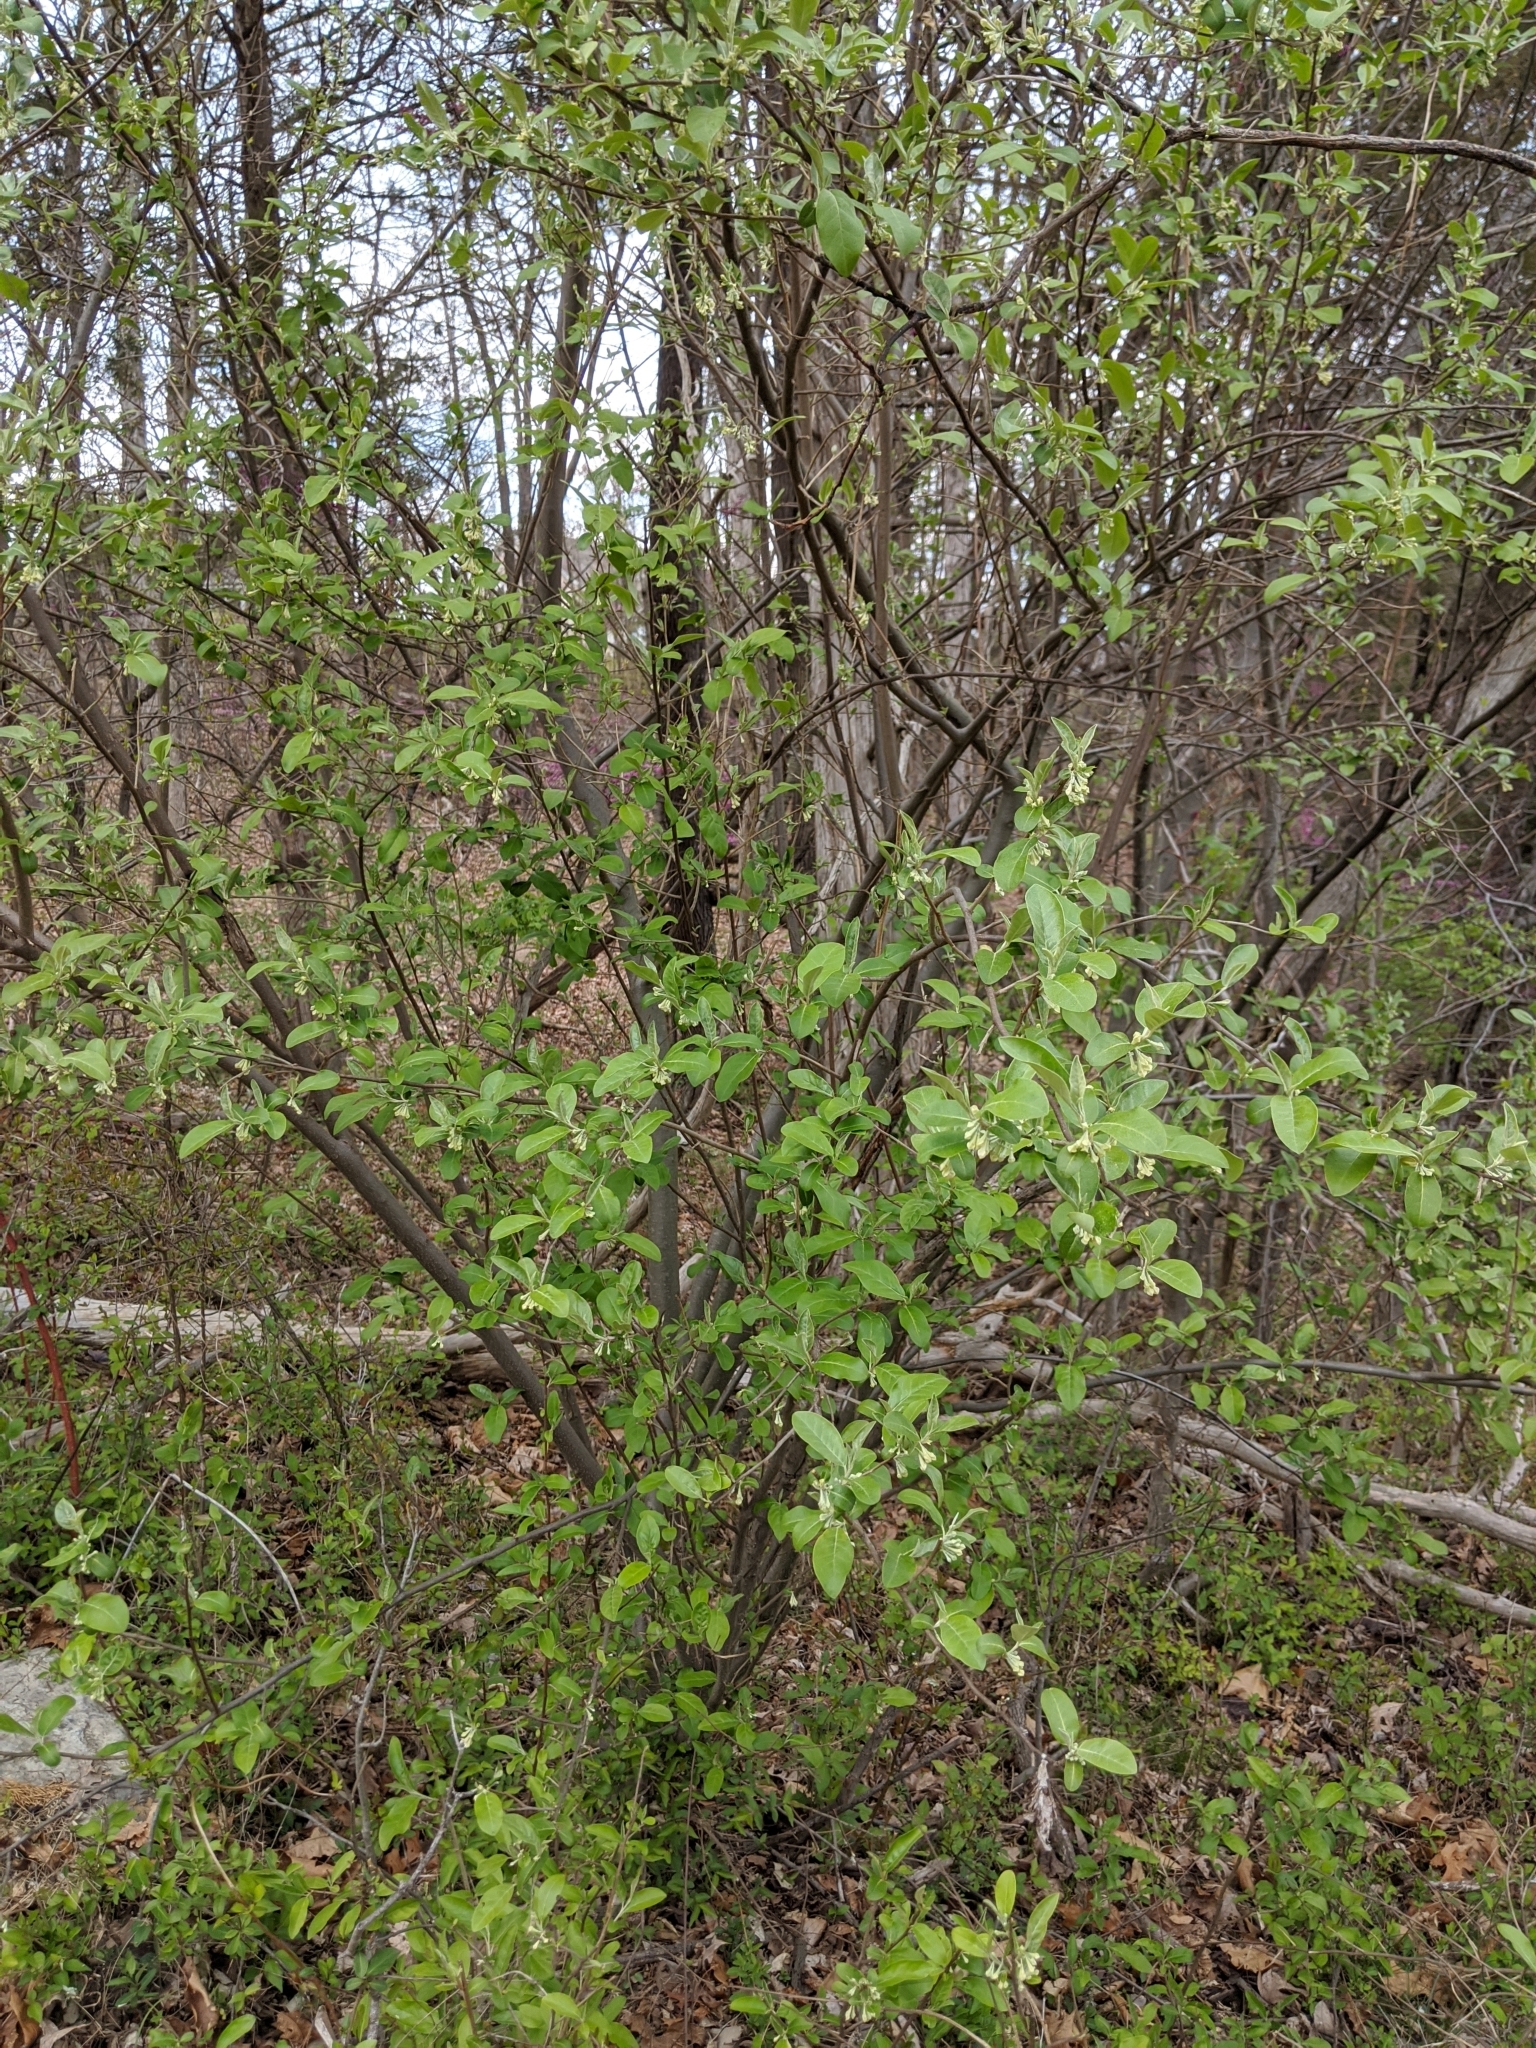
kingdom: Plantae
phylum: Tracheophyta
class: Magnoliopsida
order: Rosales
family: Elaeagnaceae
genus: Elaeagnus
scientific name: Elaeagnus umbellata
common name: Autumn olive
